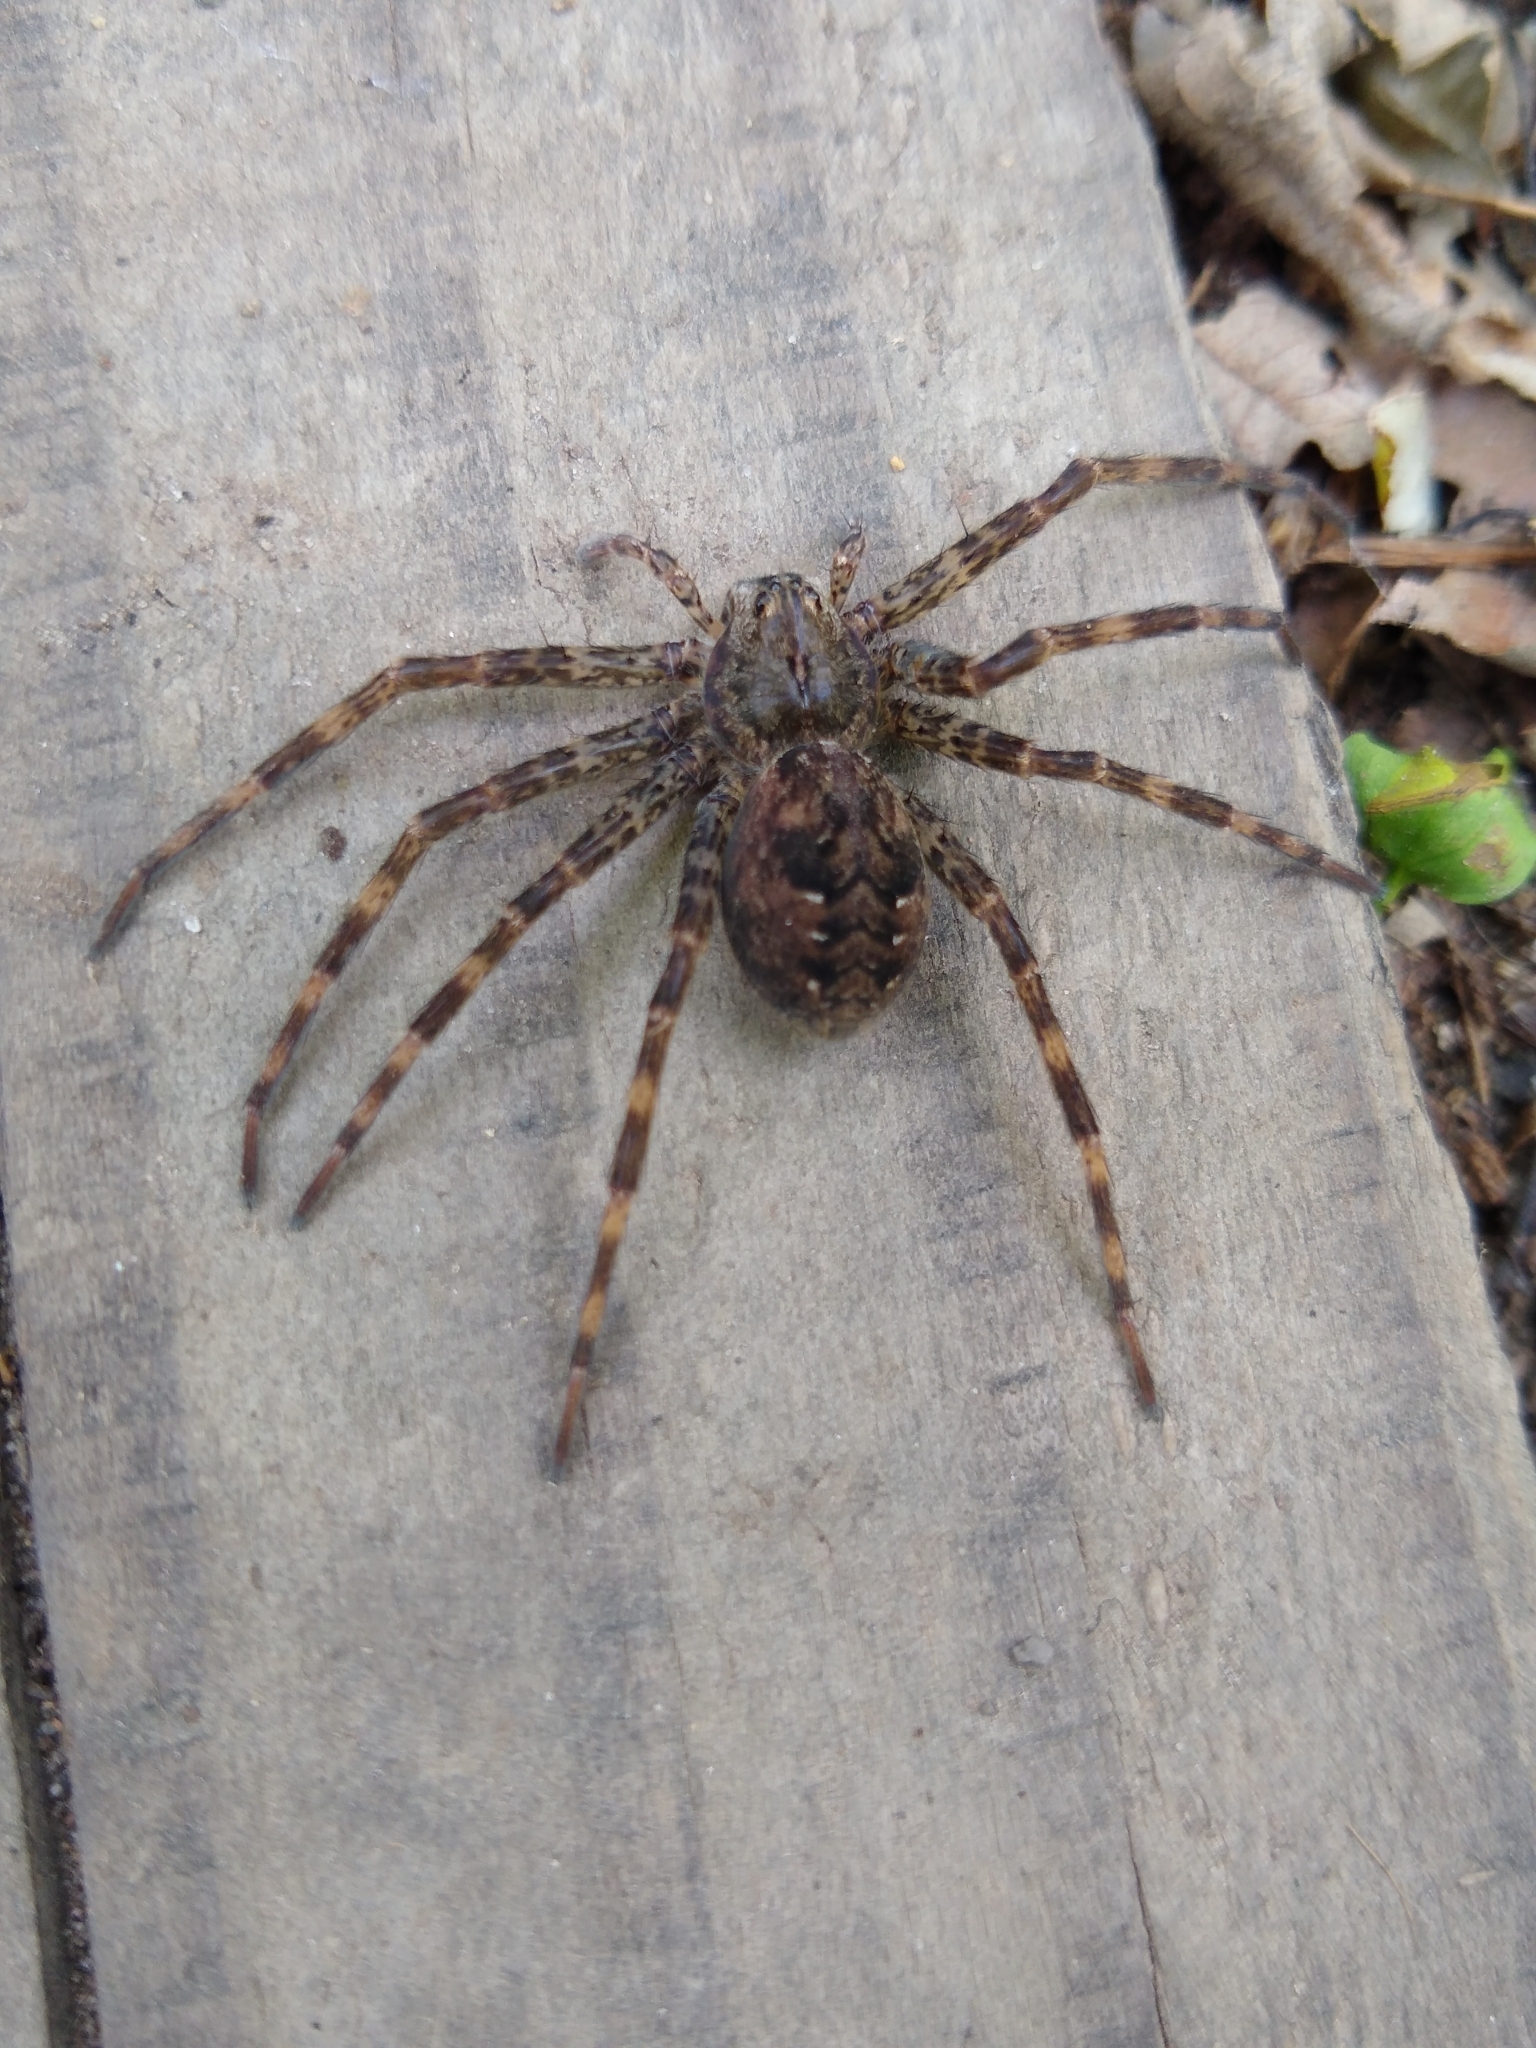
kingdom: Animalia
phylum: Arthropoda
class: Arachnida
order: Araneae
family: Pisauridae
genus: Dolomedes
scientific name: Dolomedes tenebrosus
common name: Dark fishing spider
